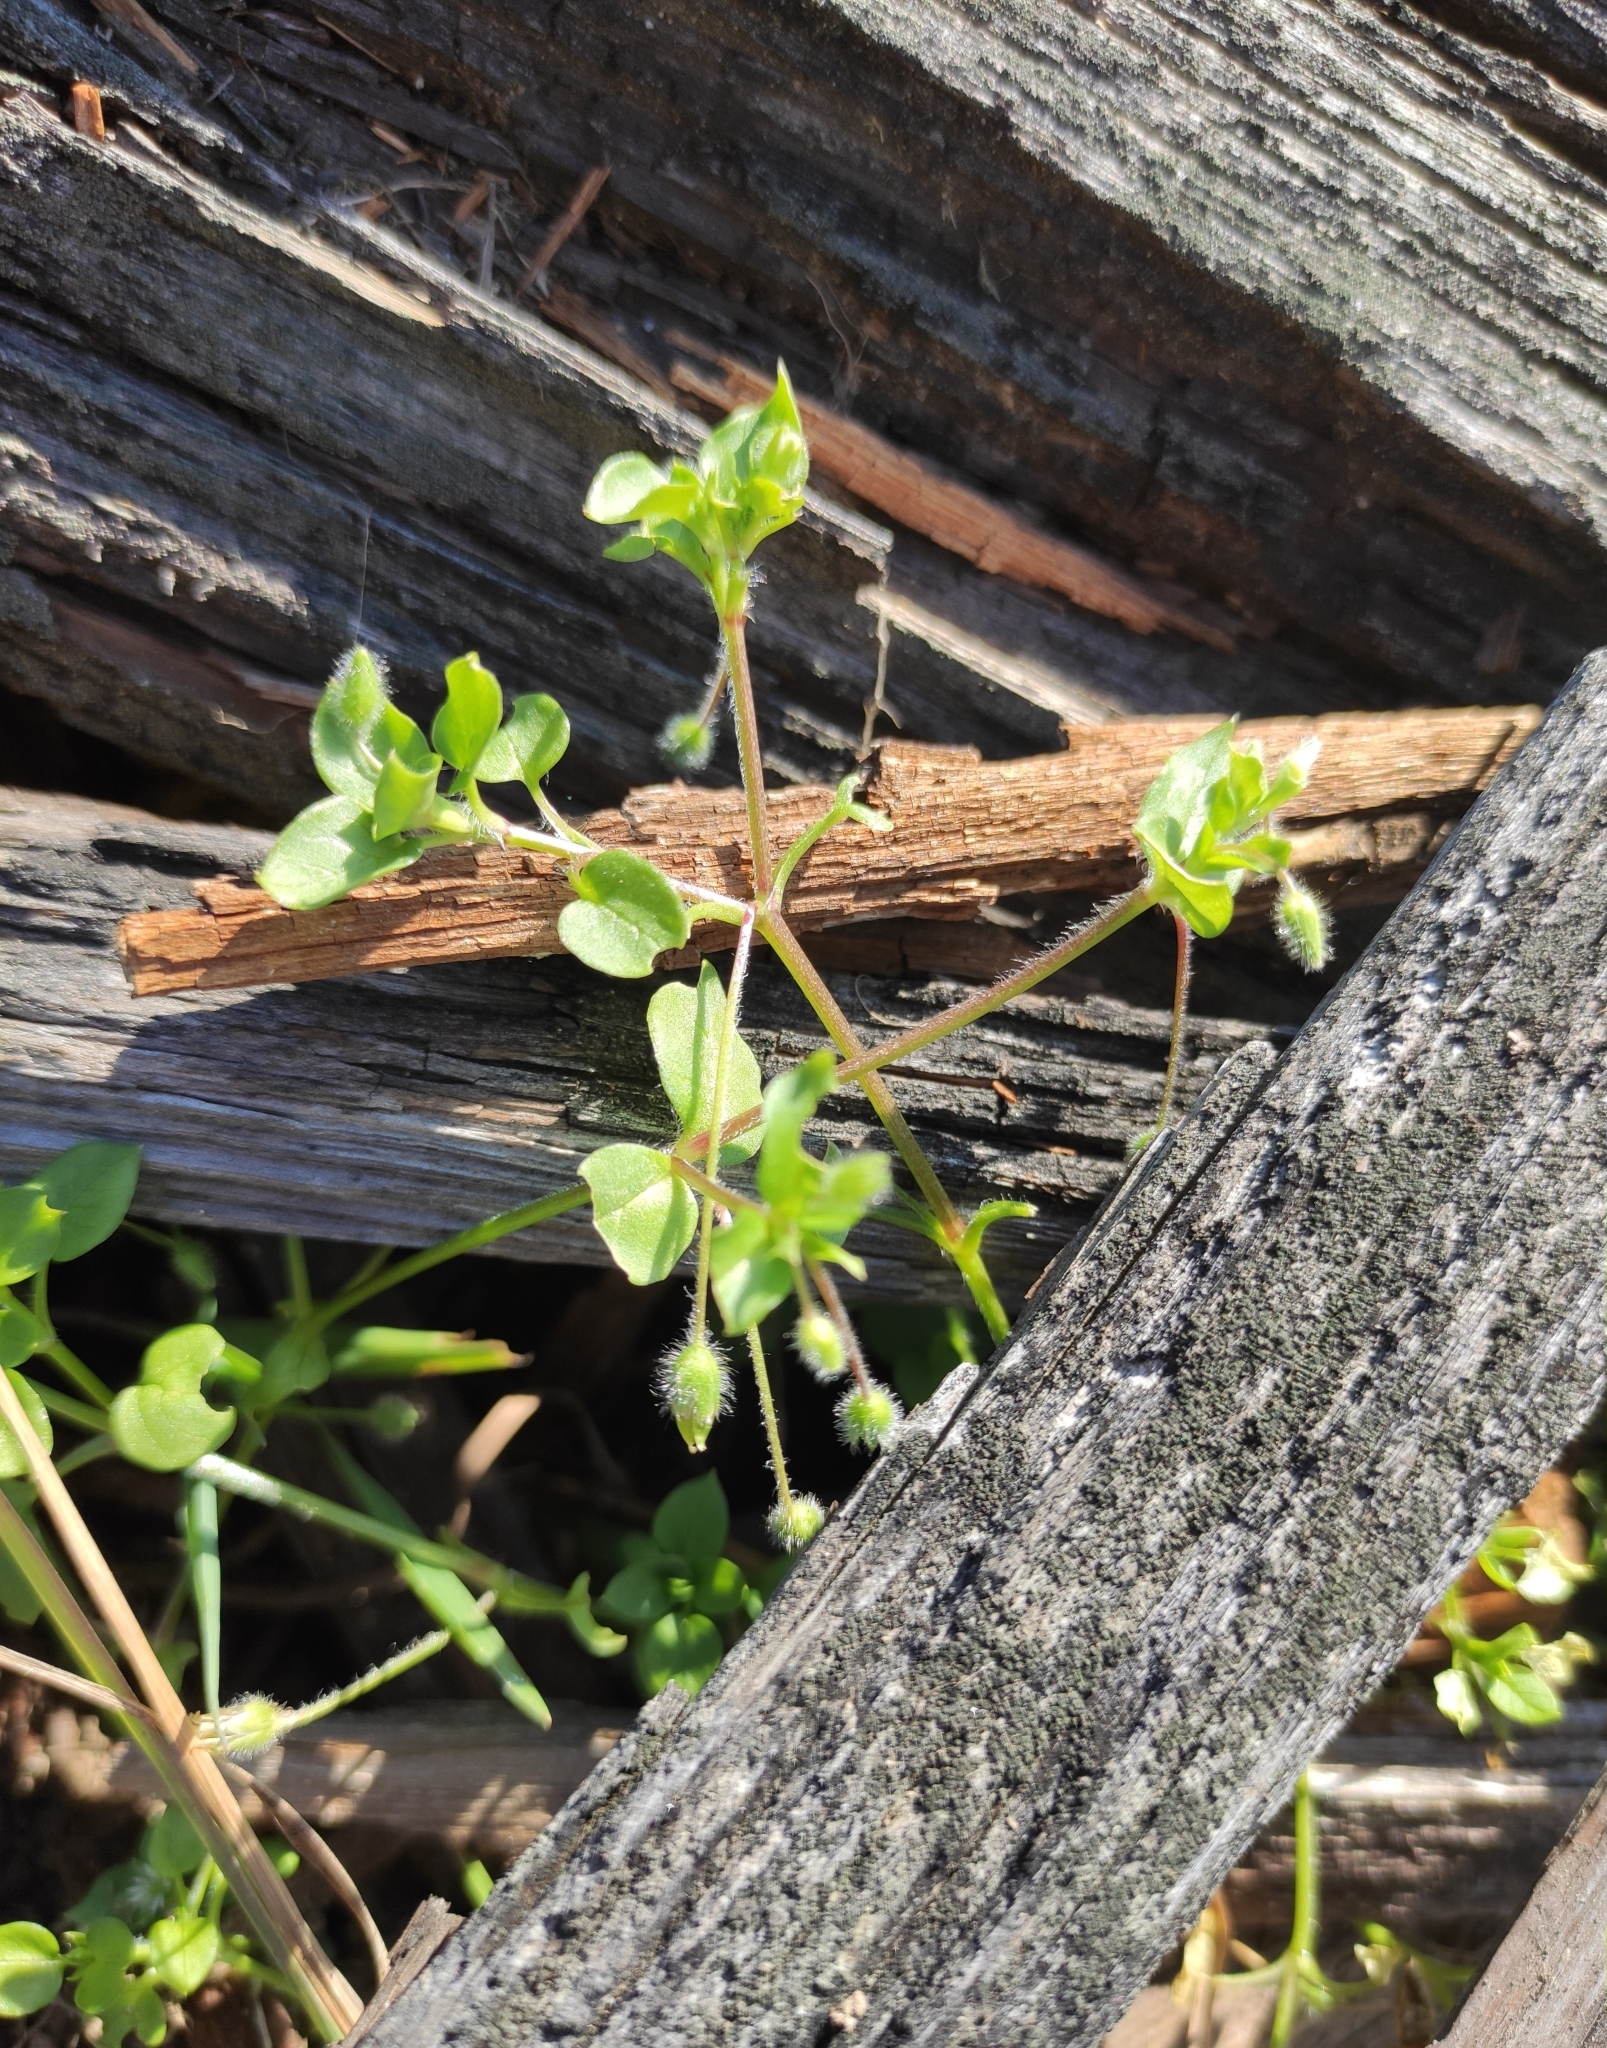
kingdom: Plantae
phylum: Tracheophyta
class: Magnoliopsida
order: Caryophyllales
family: Caryophyllaceae
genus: Stellaria
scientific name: Stellaria media
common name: Common chickweed
